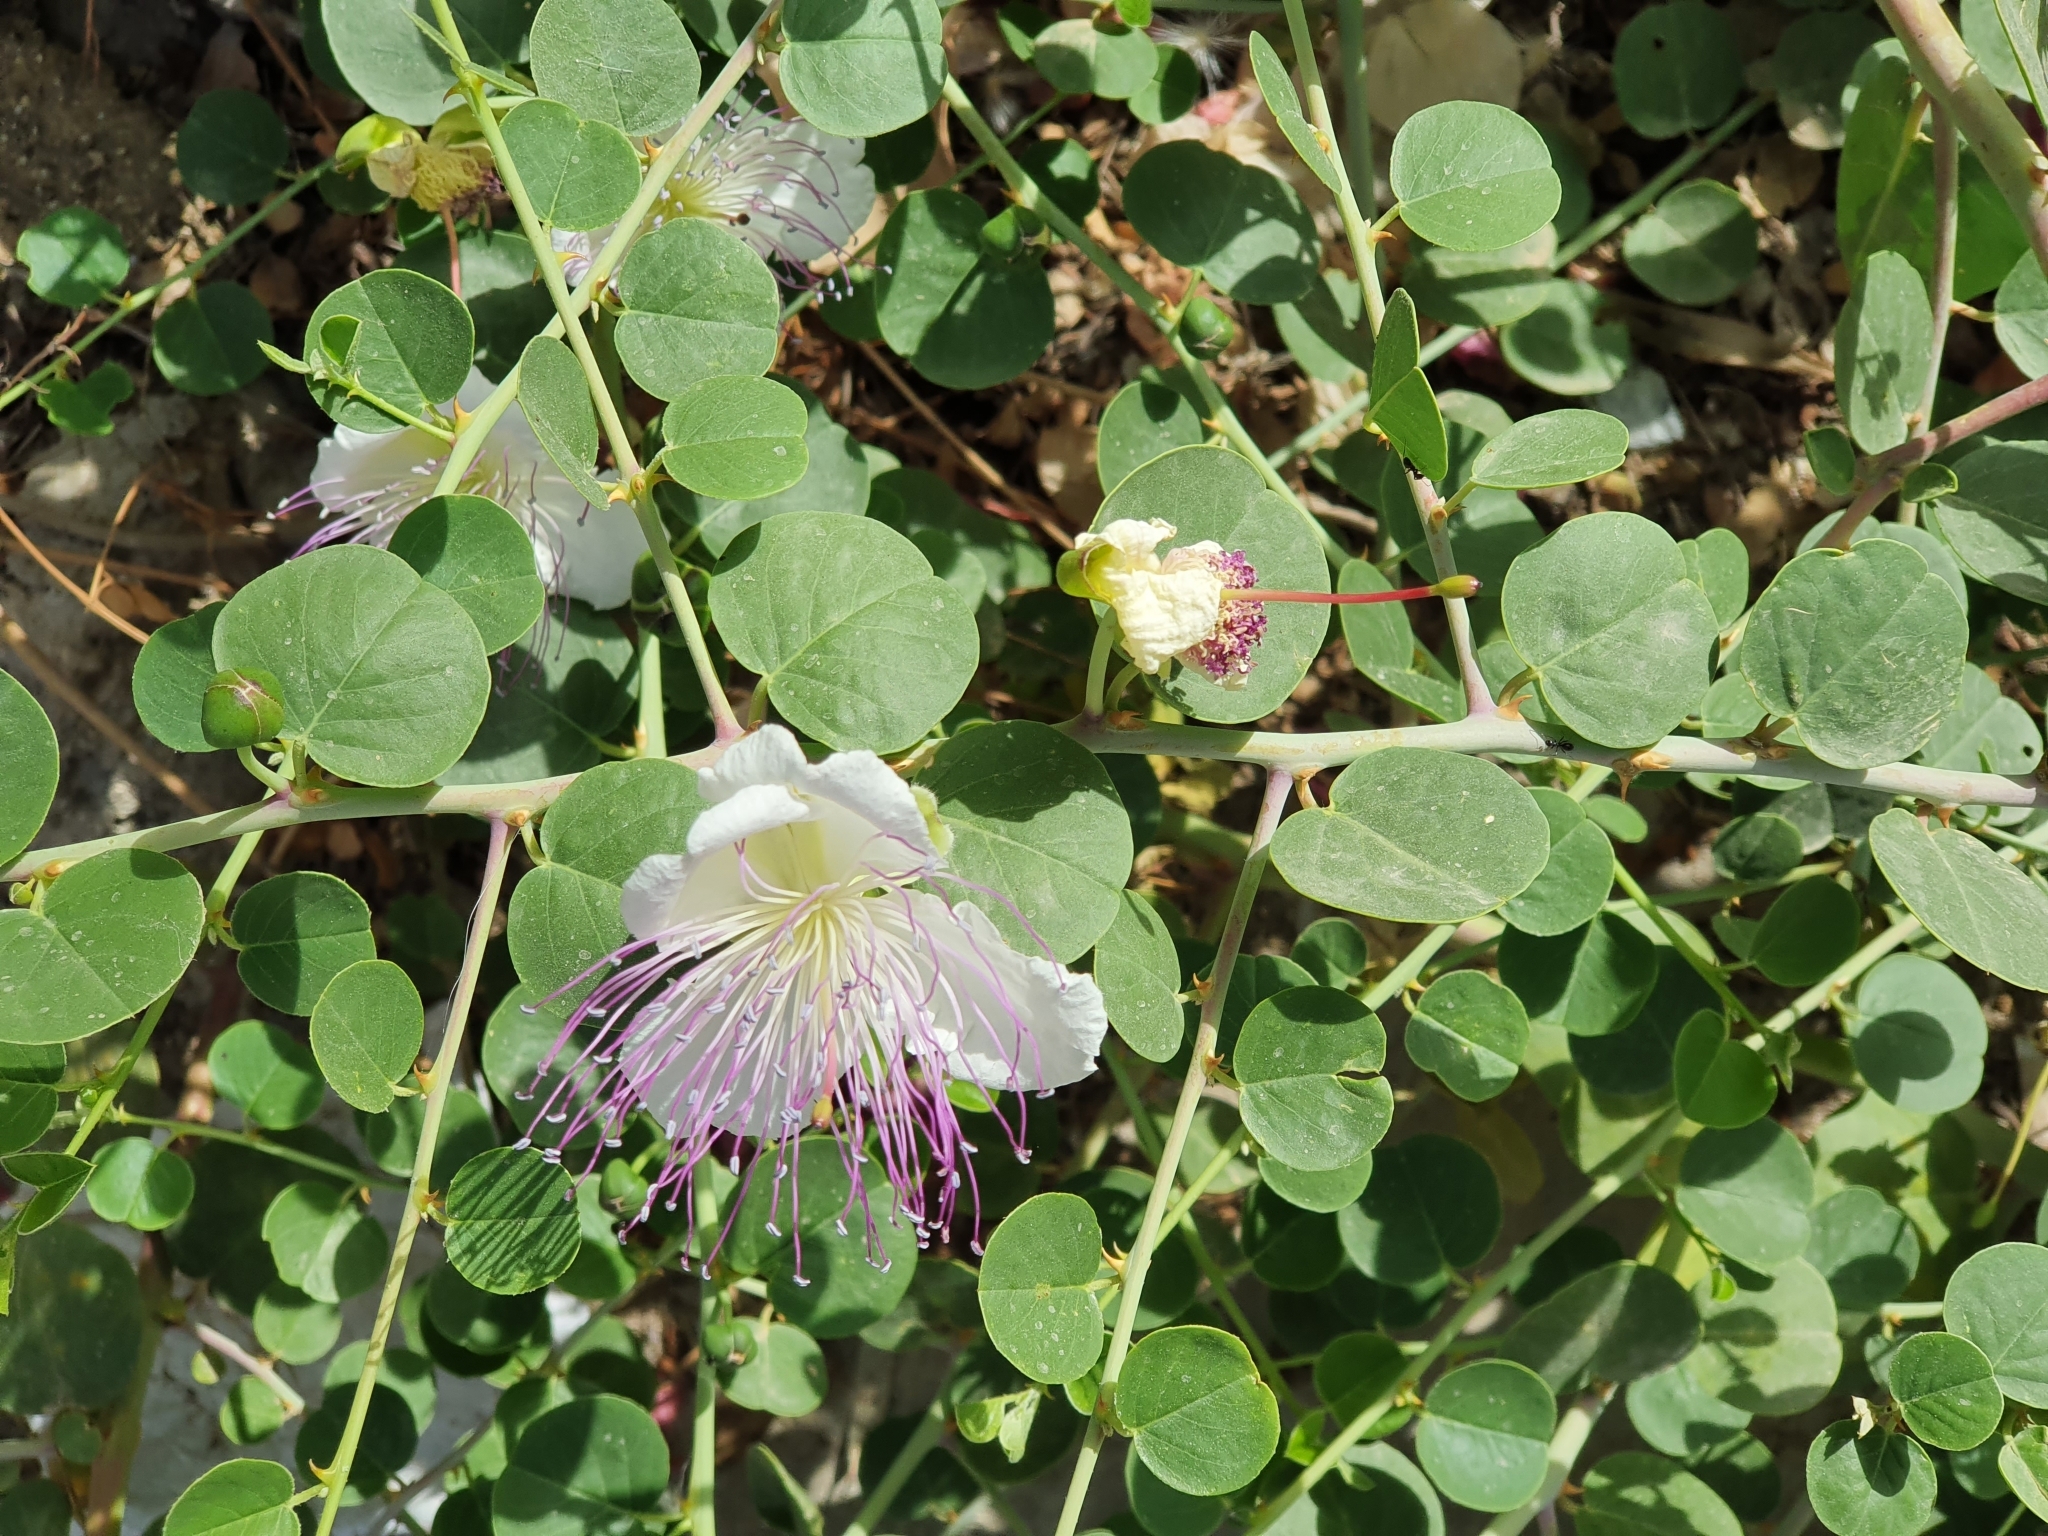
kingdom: Plantae
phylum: Tracheophyta
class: Magnoliopsida
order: Brassicales
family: Capparaceae
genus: Capparis
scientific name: Capparis spinosa
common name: Caper
